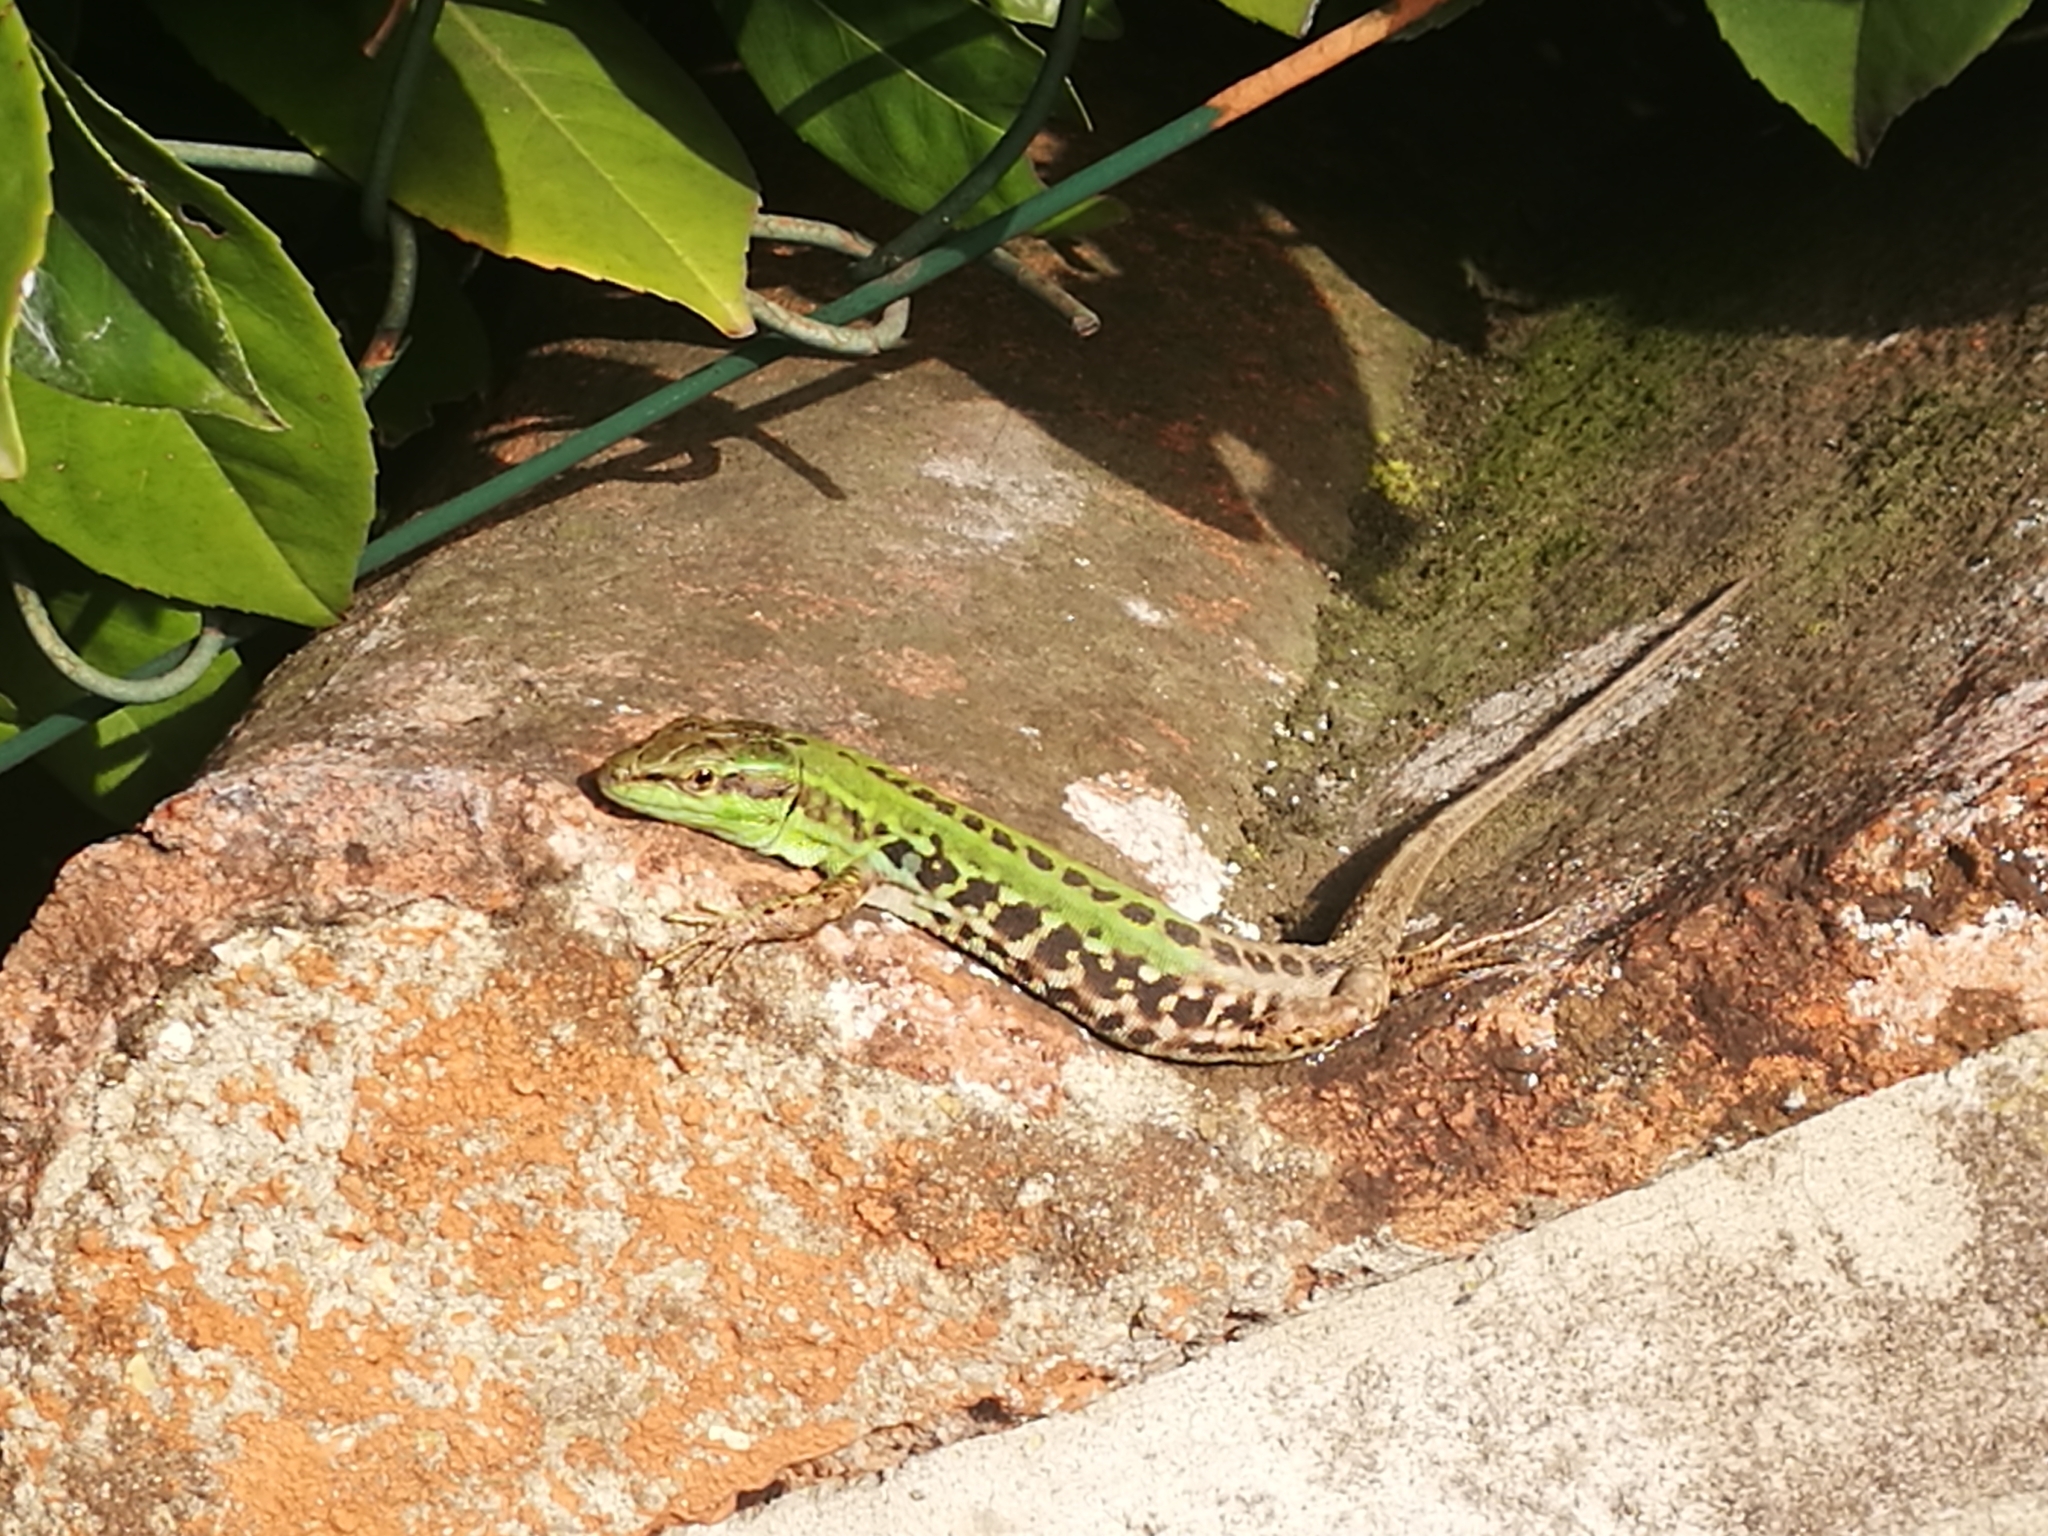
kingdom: Animalia
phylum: Chordata
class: Squamata
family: Lacertidae
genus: Podarcis
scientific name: Podarcis siculus
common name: Italian wall lizard
